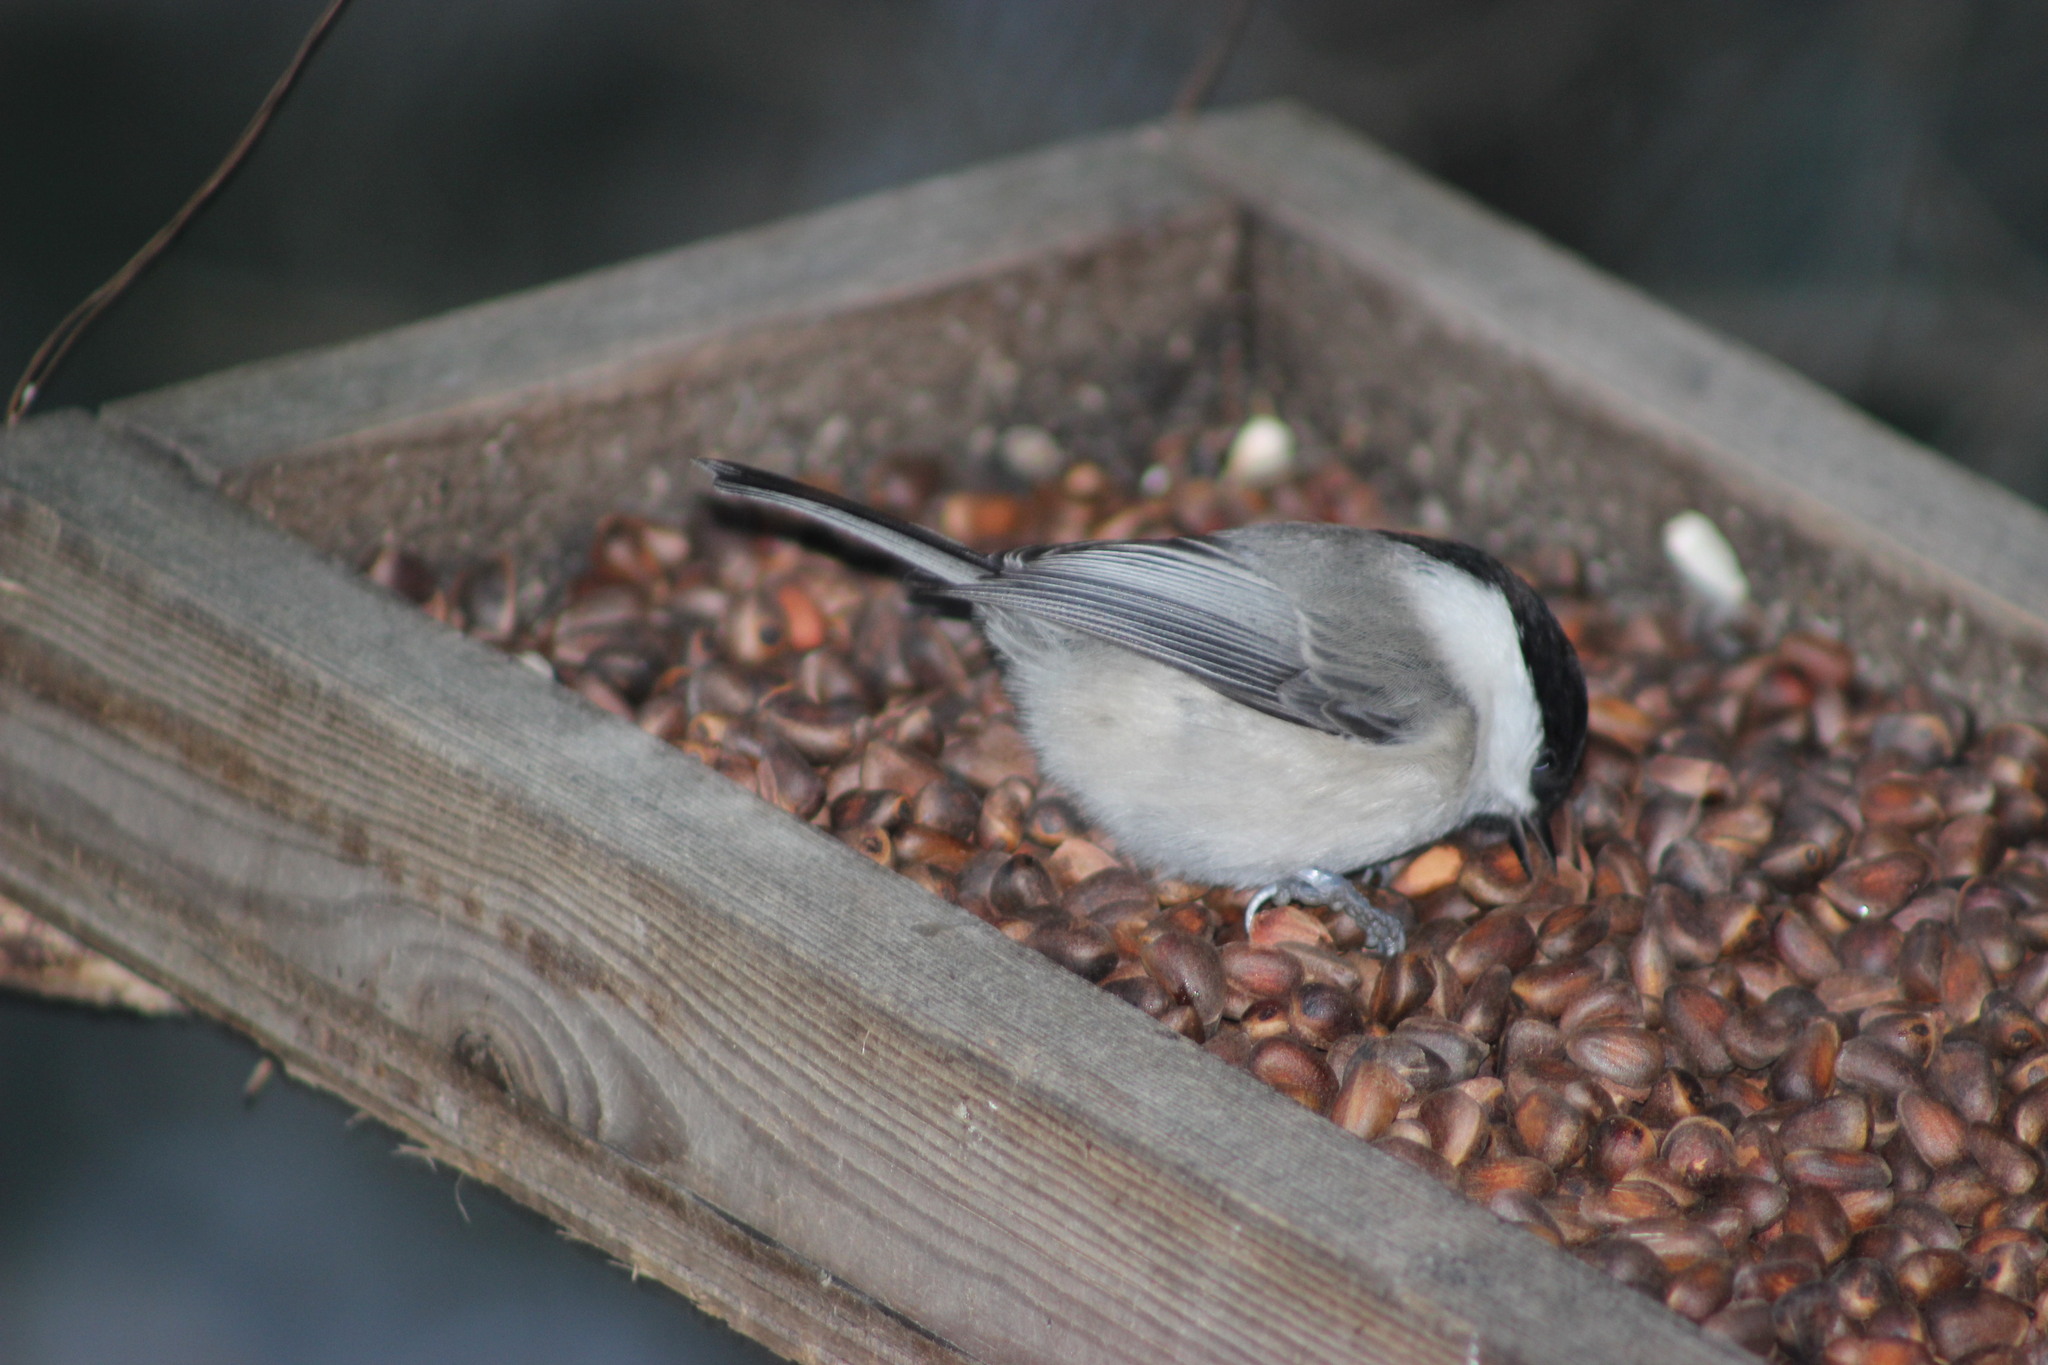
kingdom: Animalia
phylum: Chordata
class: Aves
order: Passeriformes
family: Paridae
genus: Poecile
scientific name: Poecile montanus
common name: Willow tit
